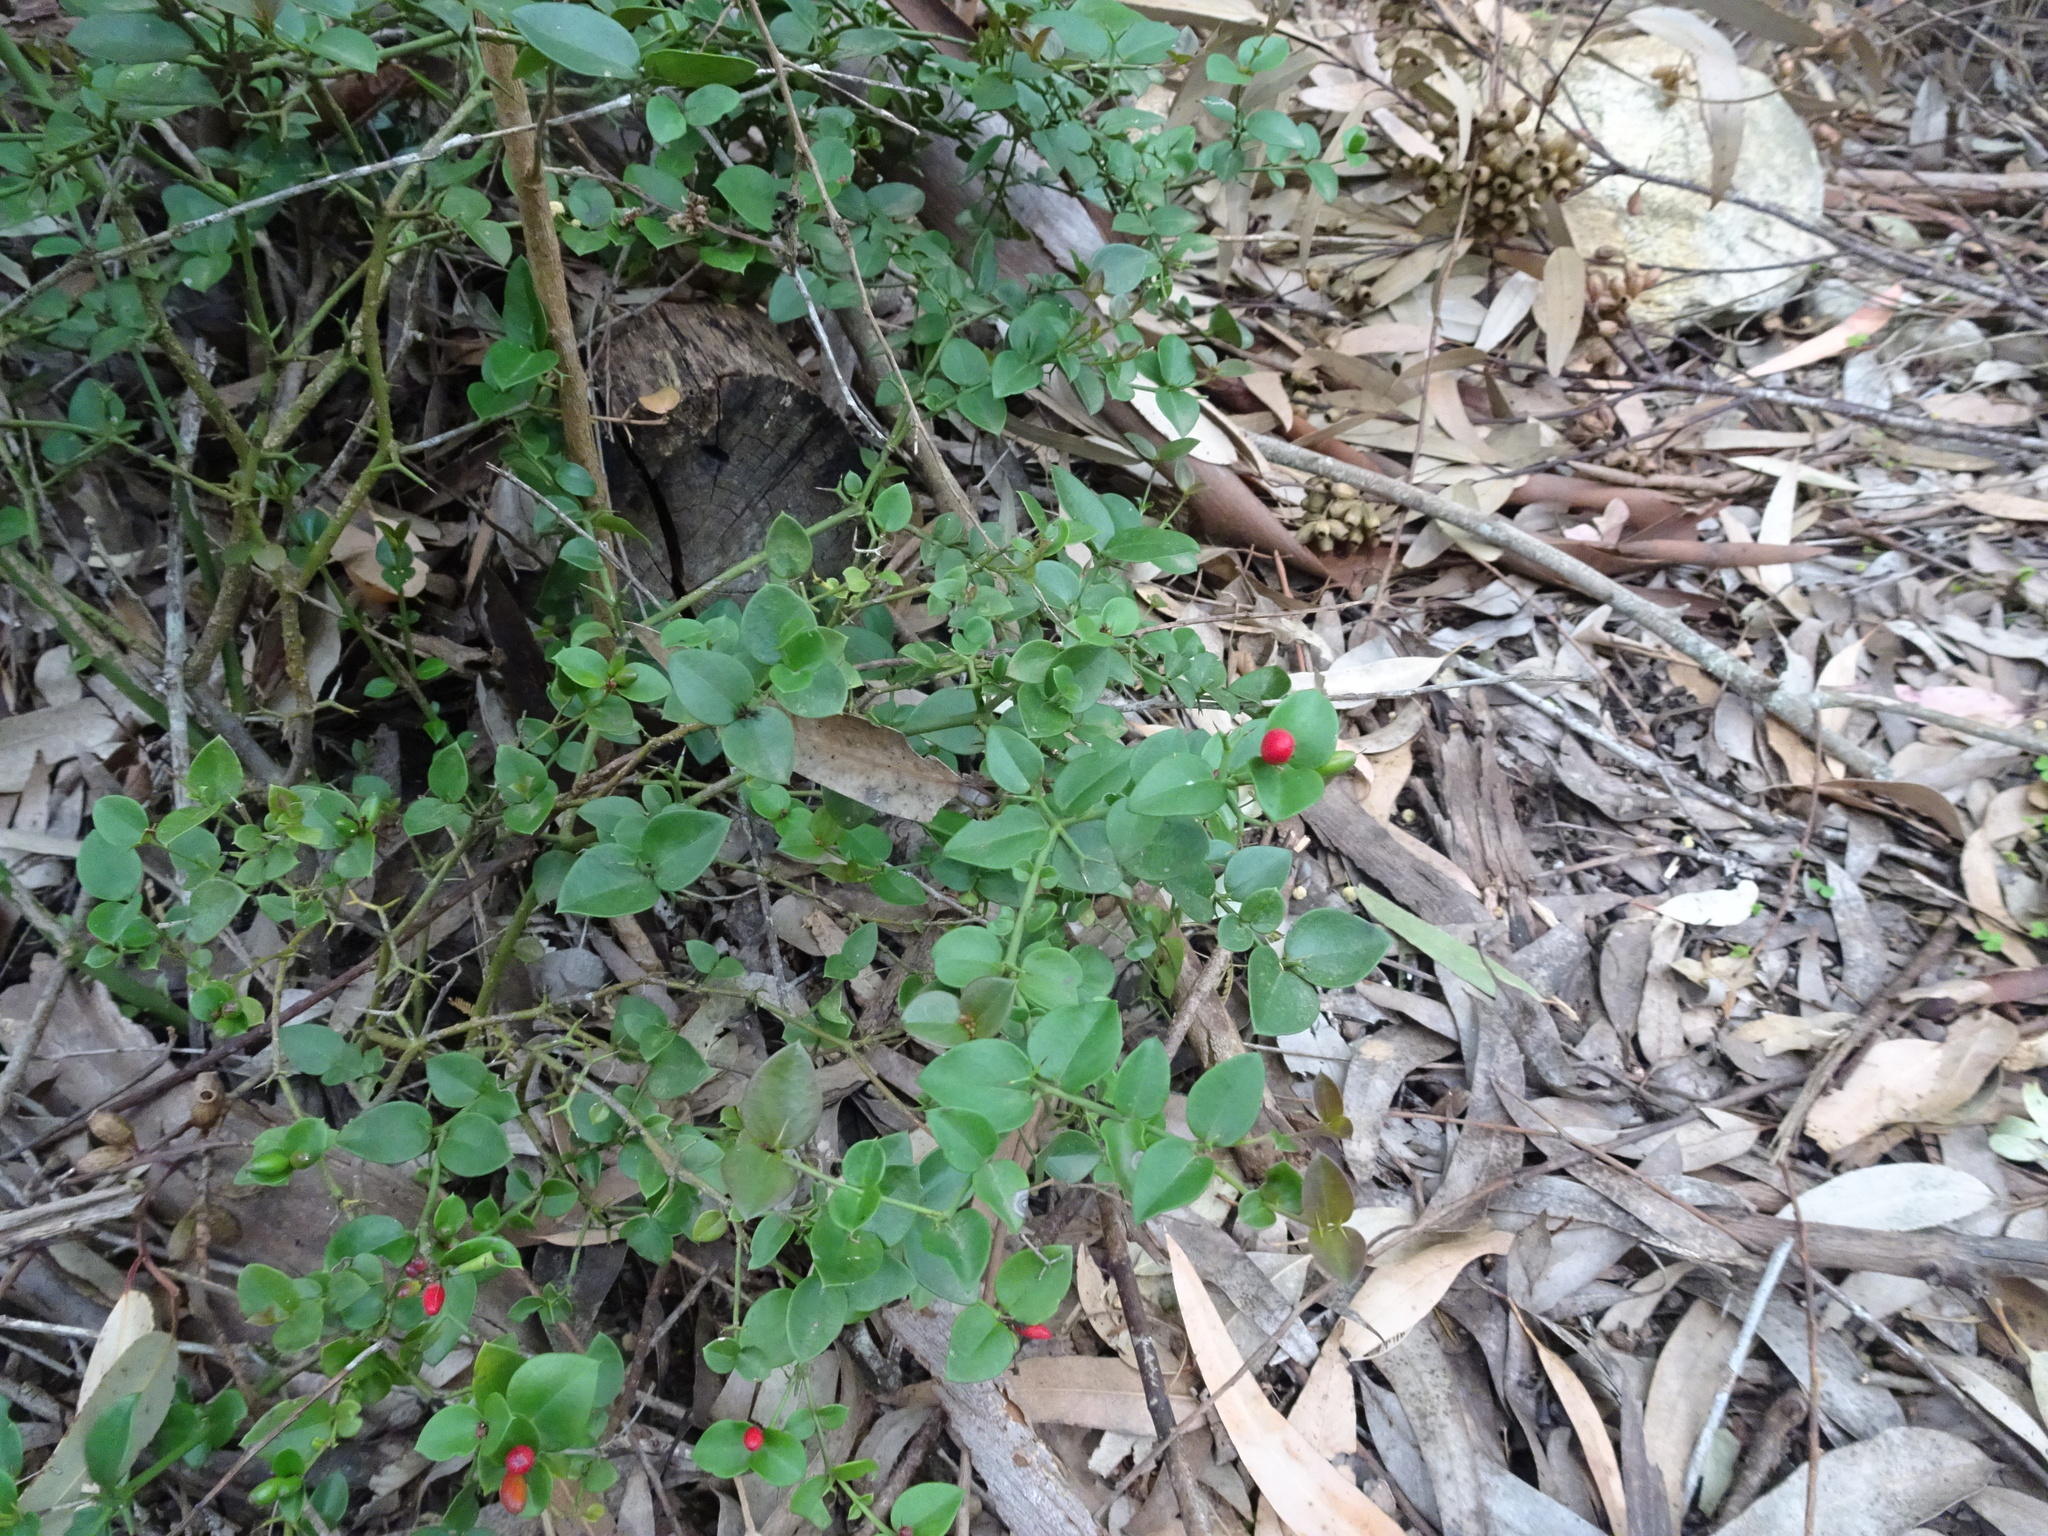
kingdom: Plantae
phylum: Tracheophyta
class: Magnoliopsida
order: Gentianales
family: Apocynaceae
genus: Carissa
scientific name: Carissa bispinosa
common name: Forest num-num
